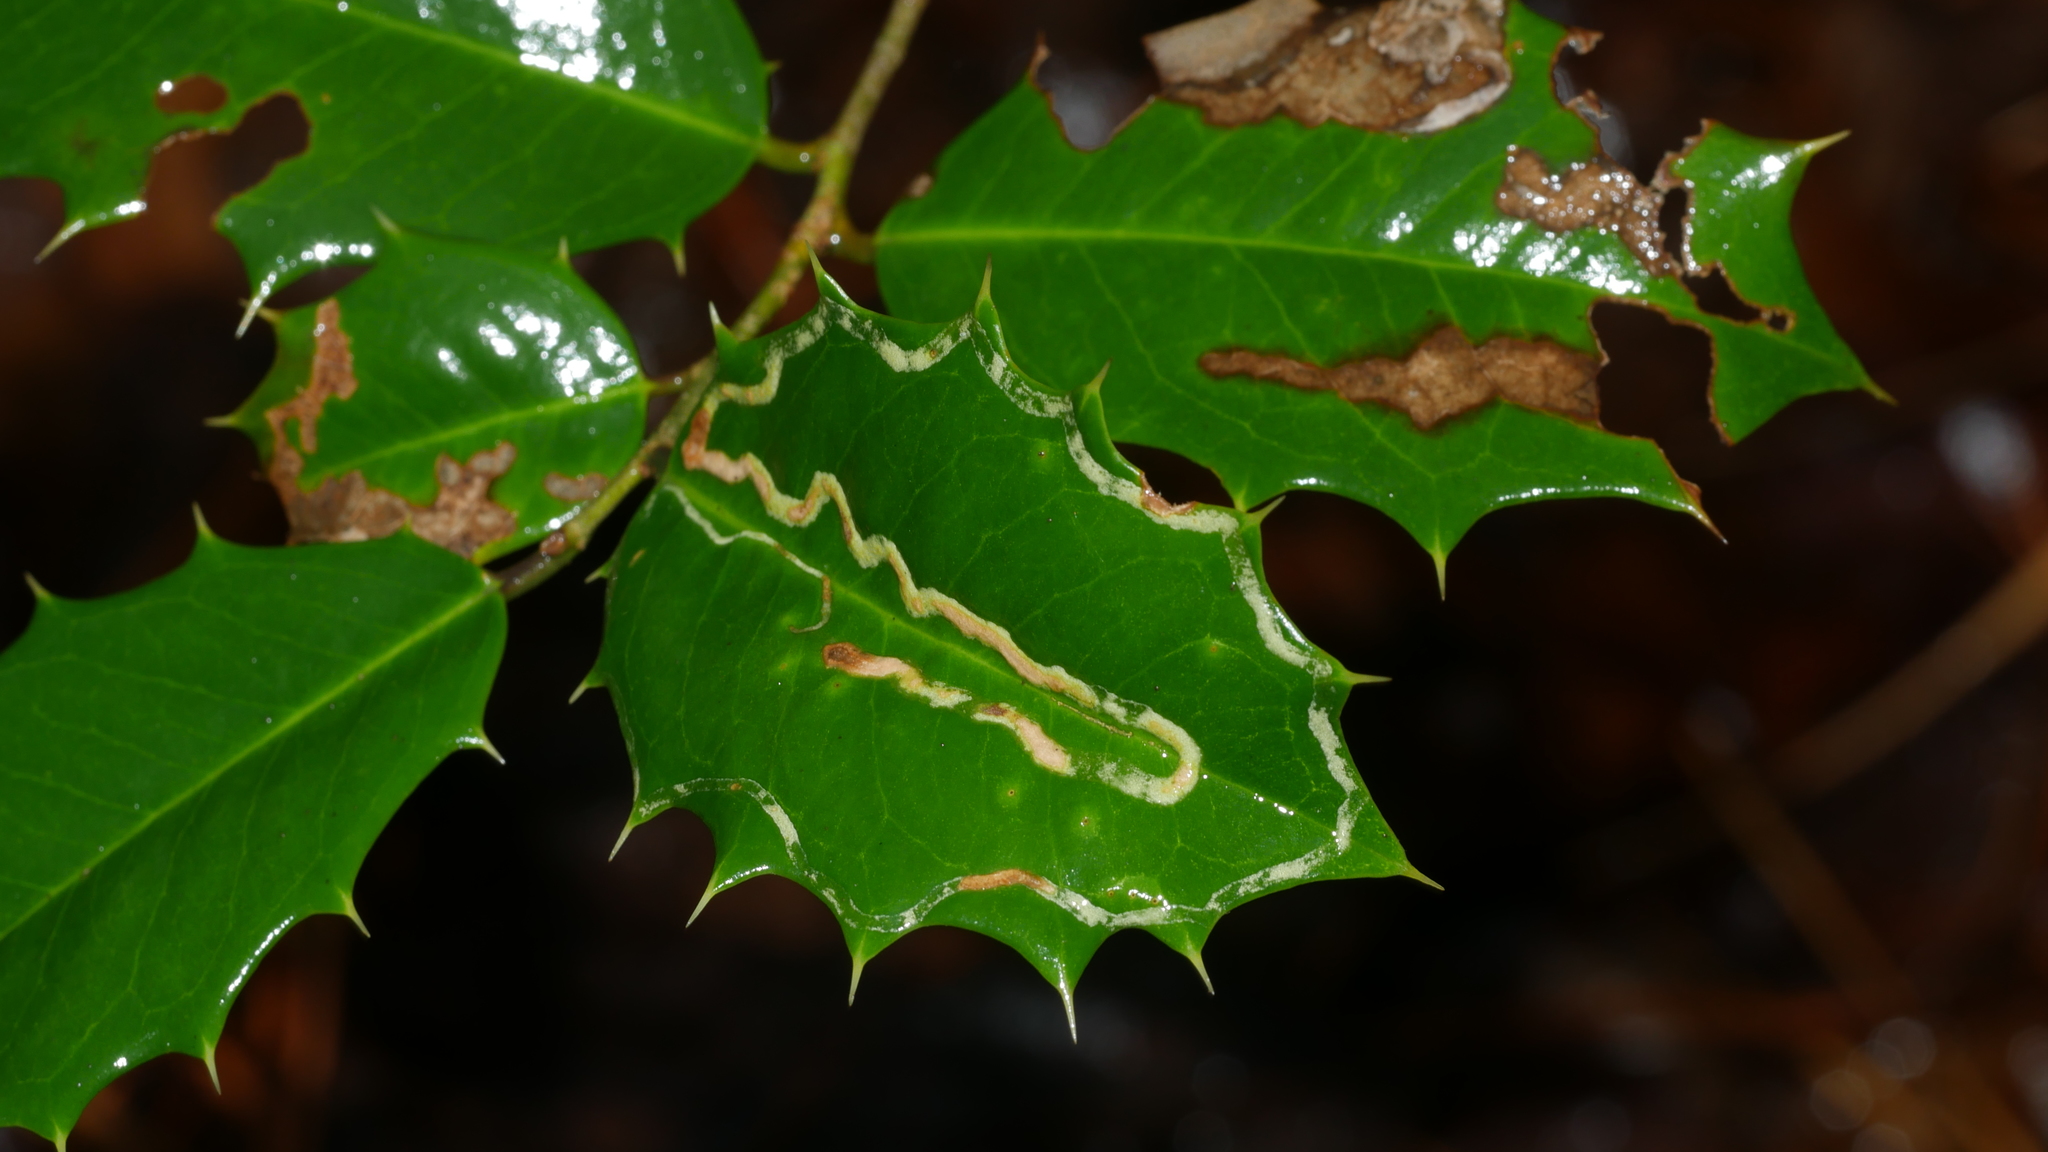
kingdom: Animalia
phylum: Arthropoda
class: Insecta
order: Diptera
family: Agromyzidae
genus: Phytomyza
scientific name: Phytomyza opacae
